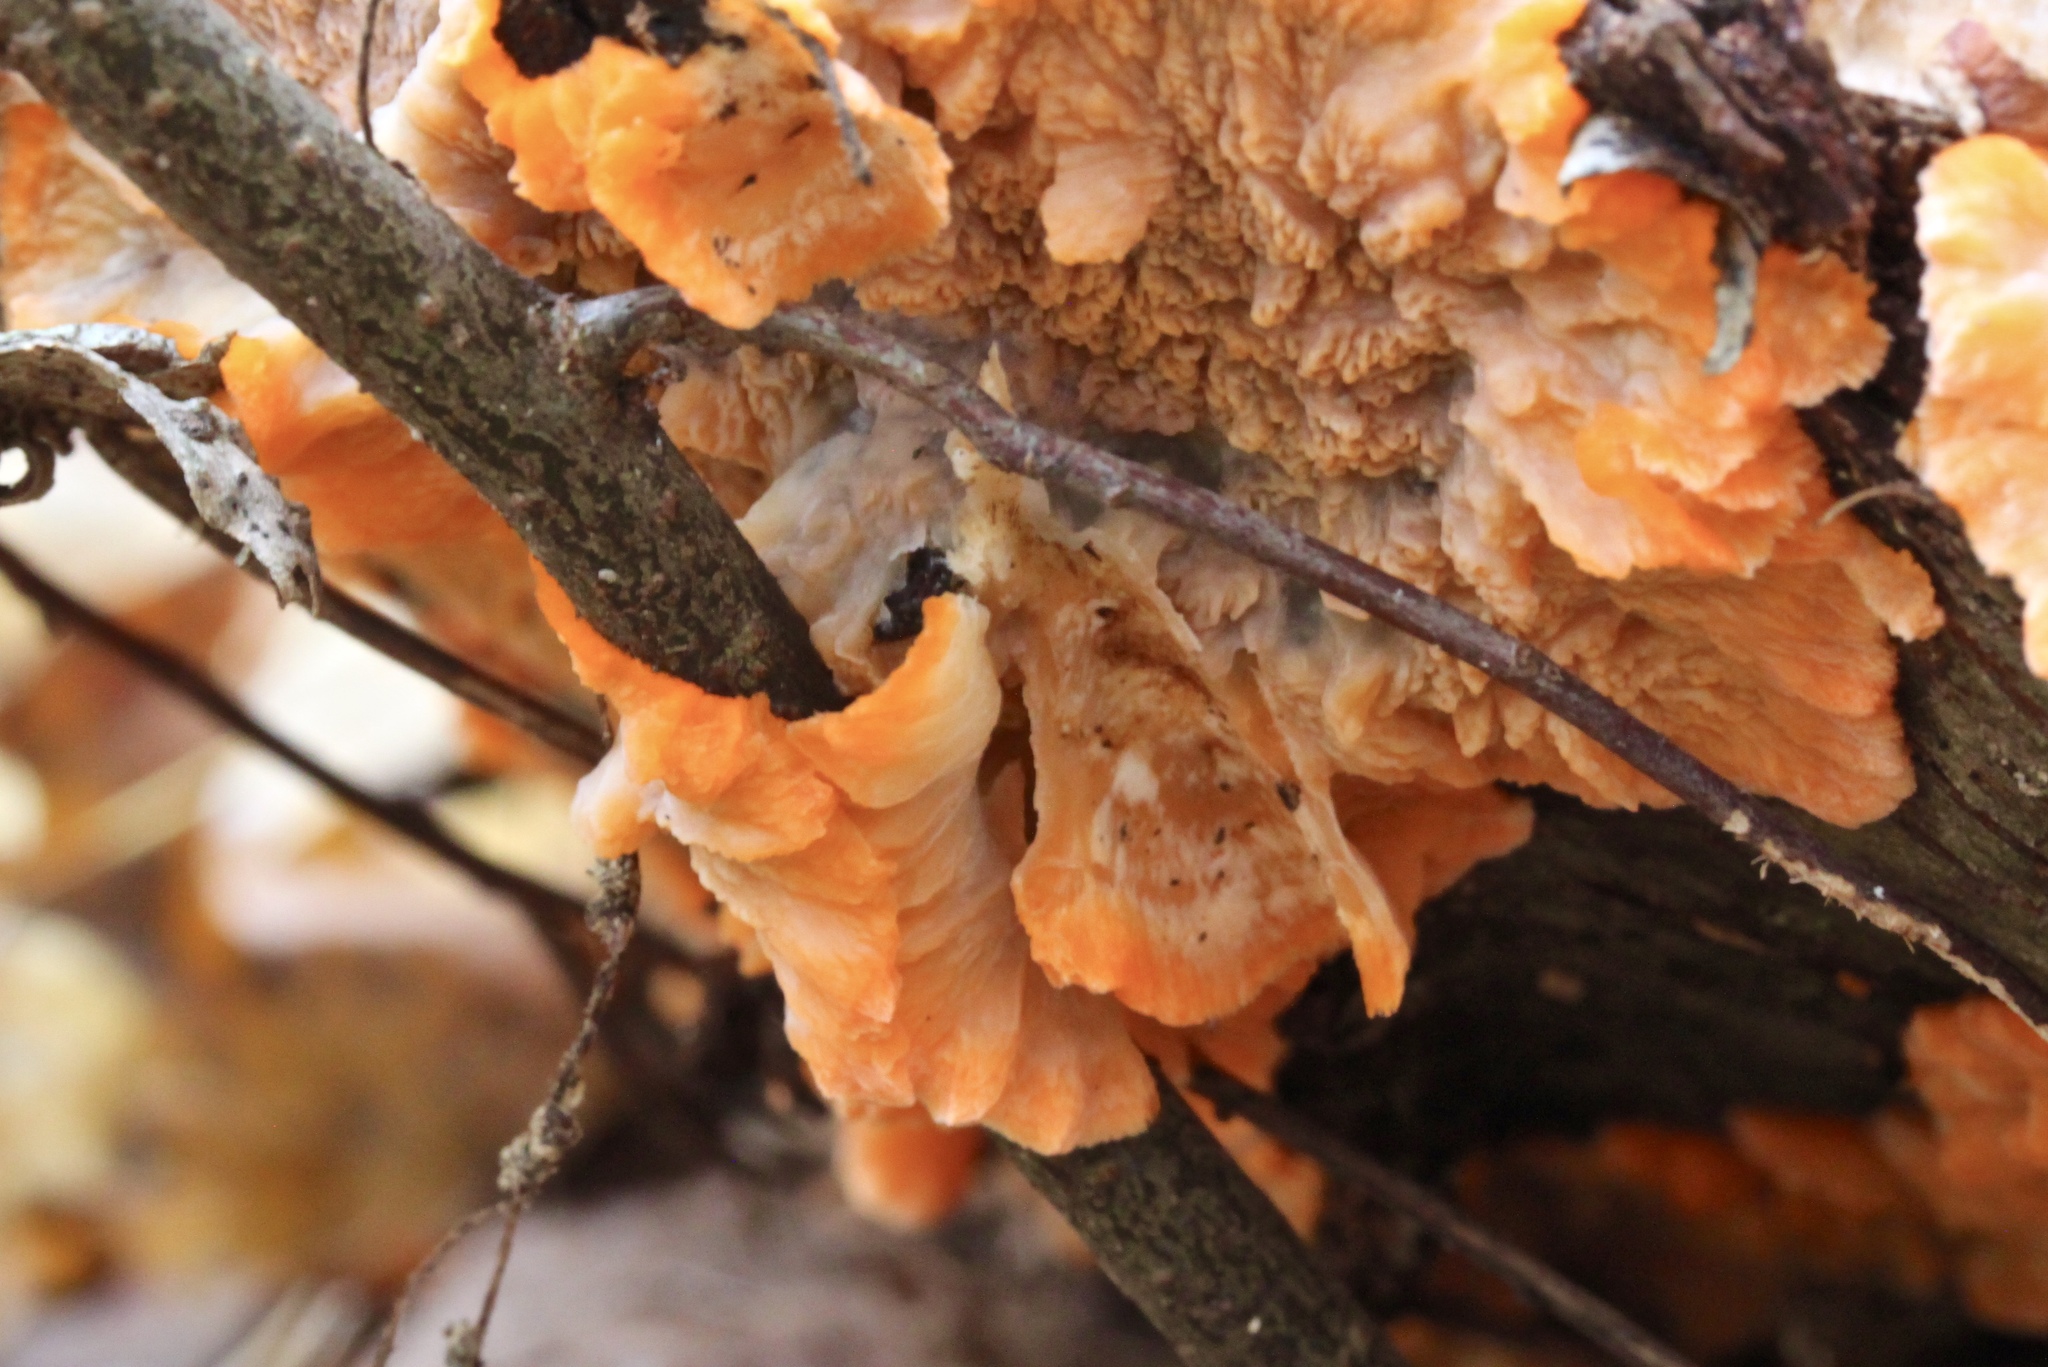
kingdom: Fungi
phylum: Basidiomycota
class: Agaricomycetes
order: Polyporales
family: Meruliaceae
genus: Phlebia
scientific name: Phlebia radiata
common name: Wrinkled crust
